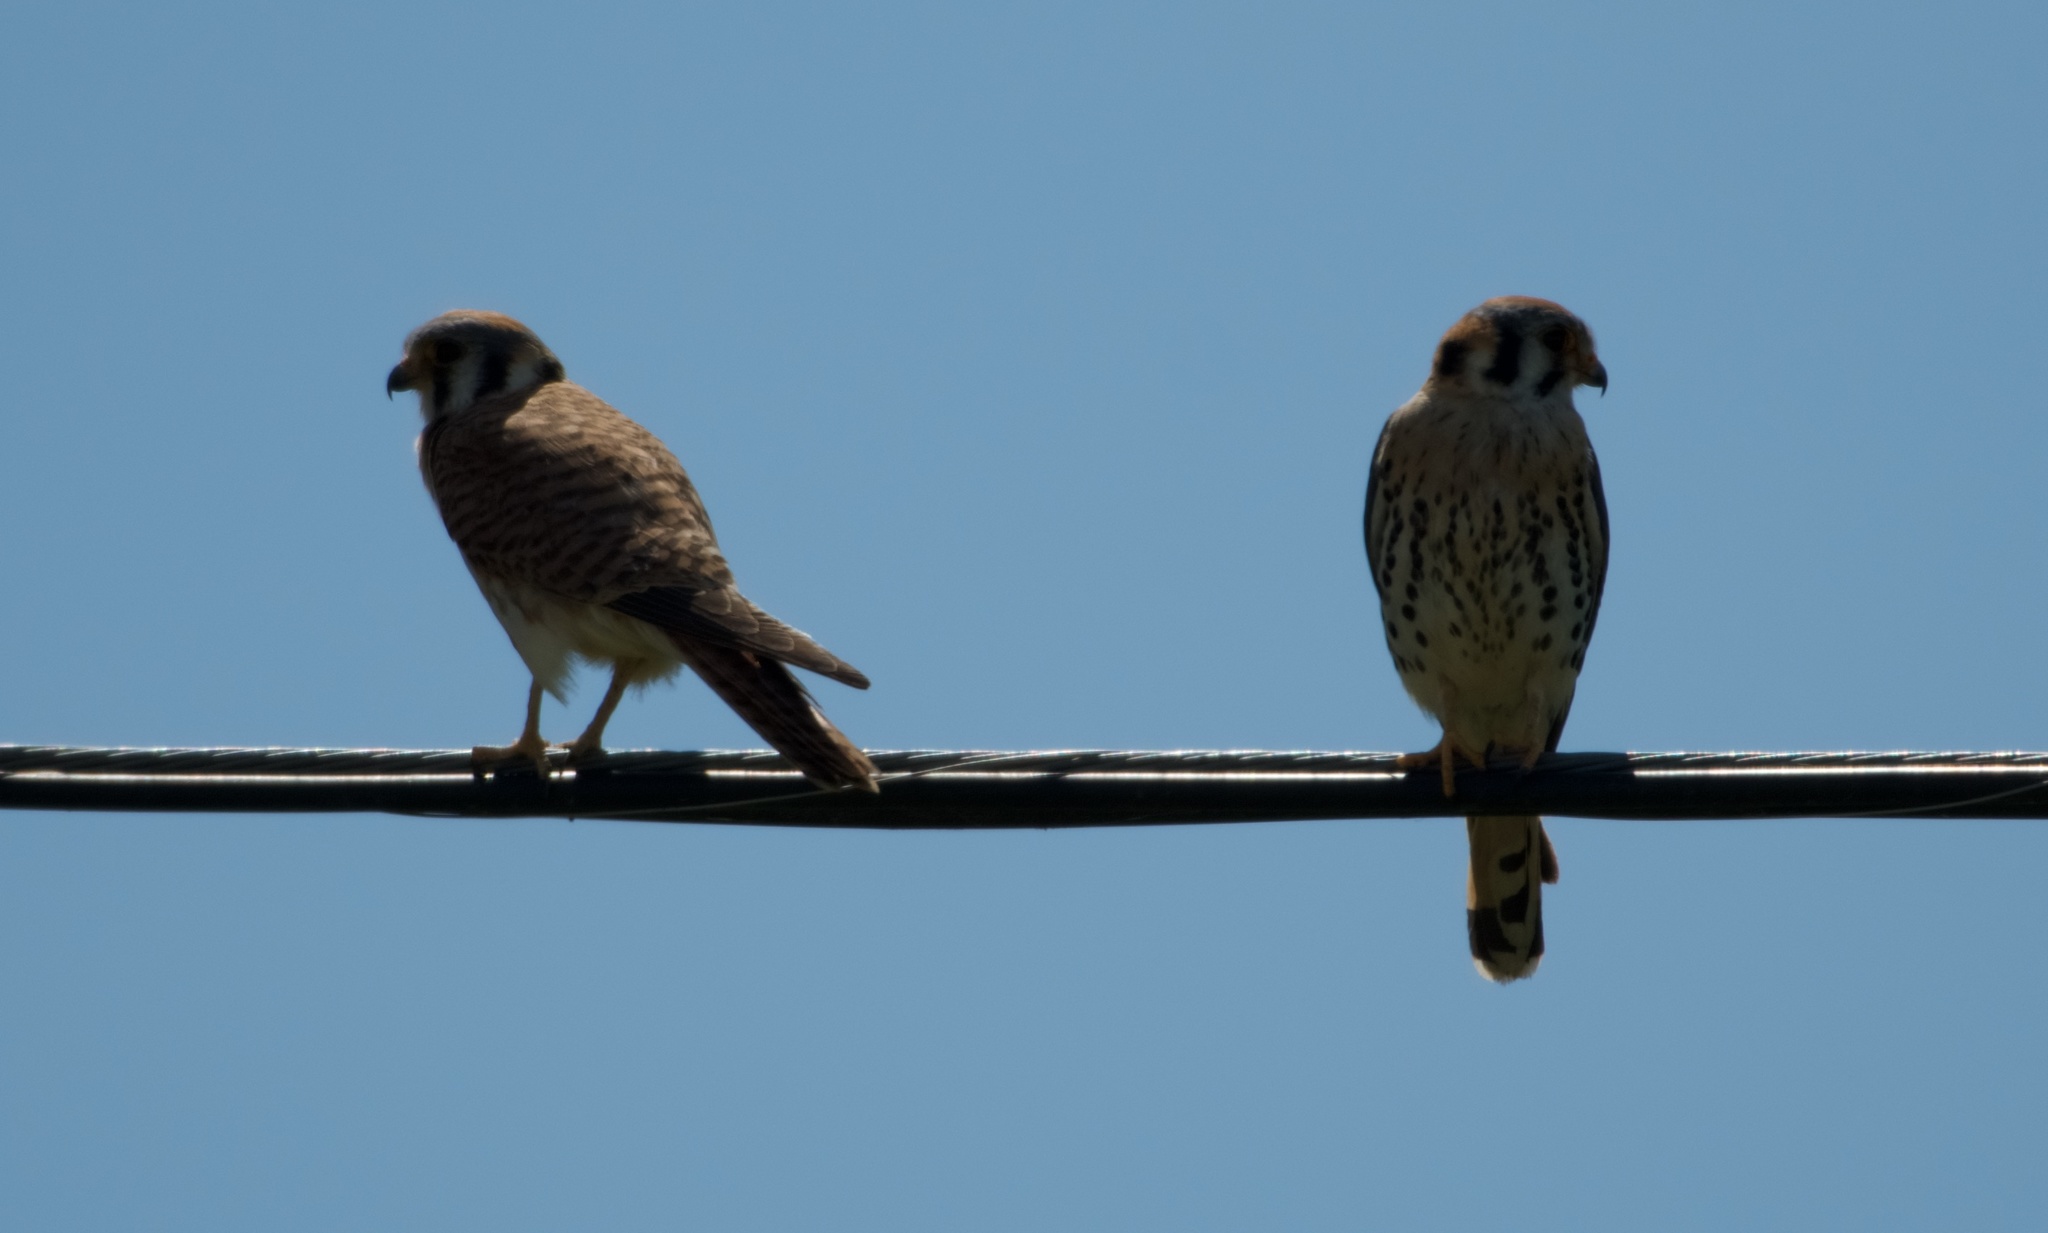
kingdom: Animalia
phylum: Chordata
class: Aves
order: Falconiformes
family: Falconidae
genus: Falco
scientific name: Falco sparverius
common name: American kestrel
